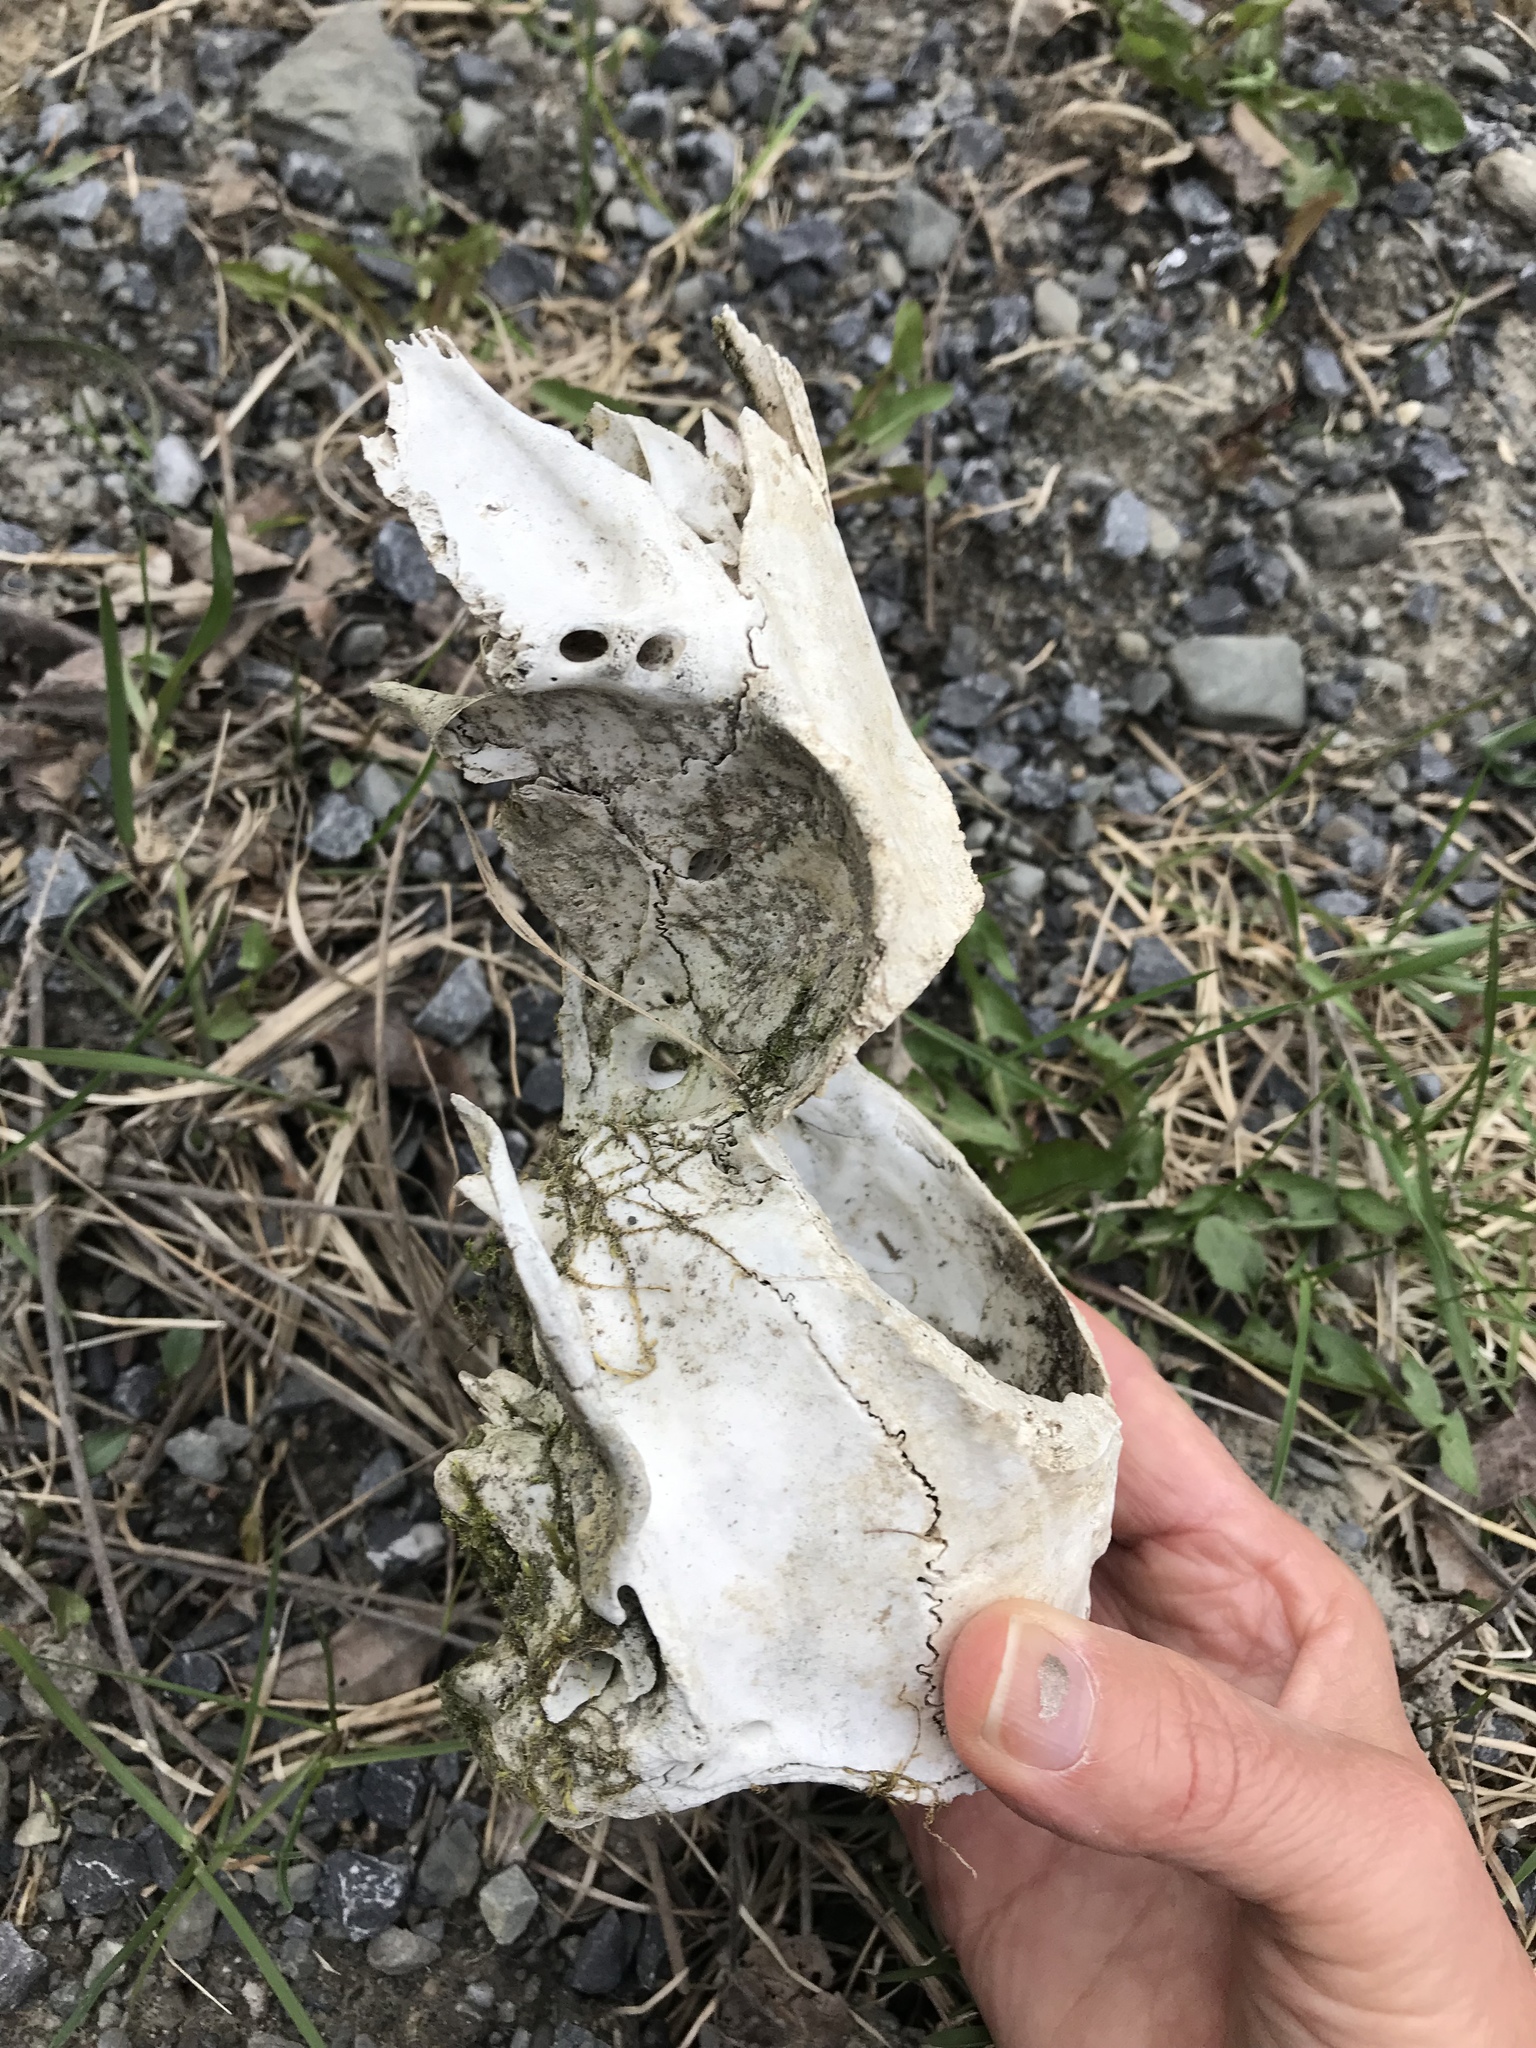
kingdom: Animalia
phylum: Chordata
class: Mammalia
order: Artiodactyla
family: Cervidae
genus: Odocoileus
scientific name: Odocoileus virginianus
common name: White-tailed deer
